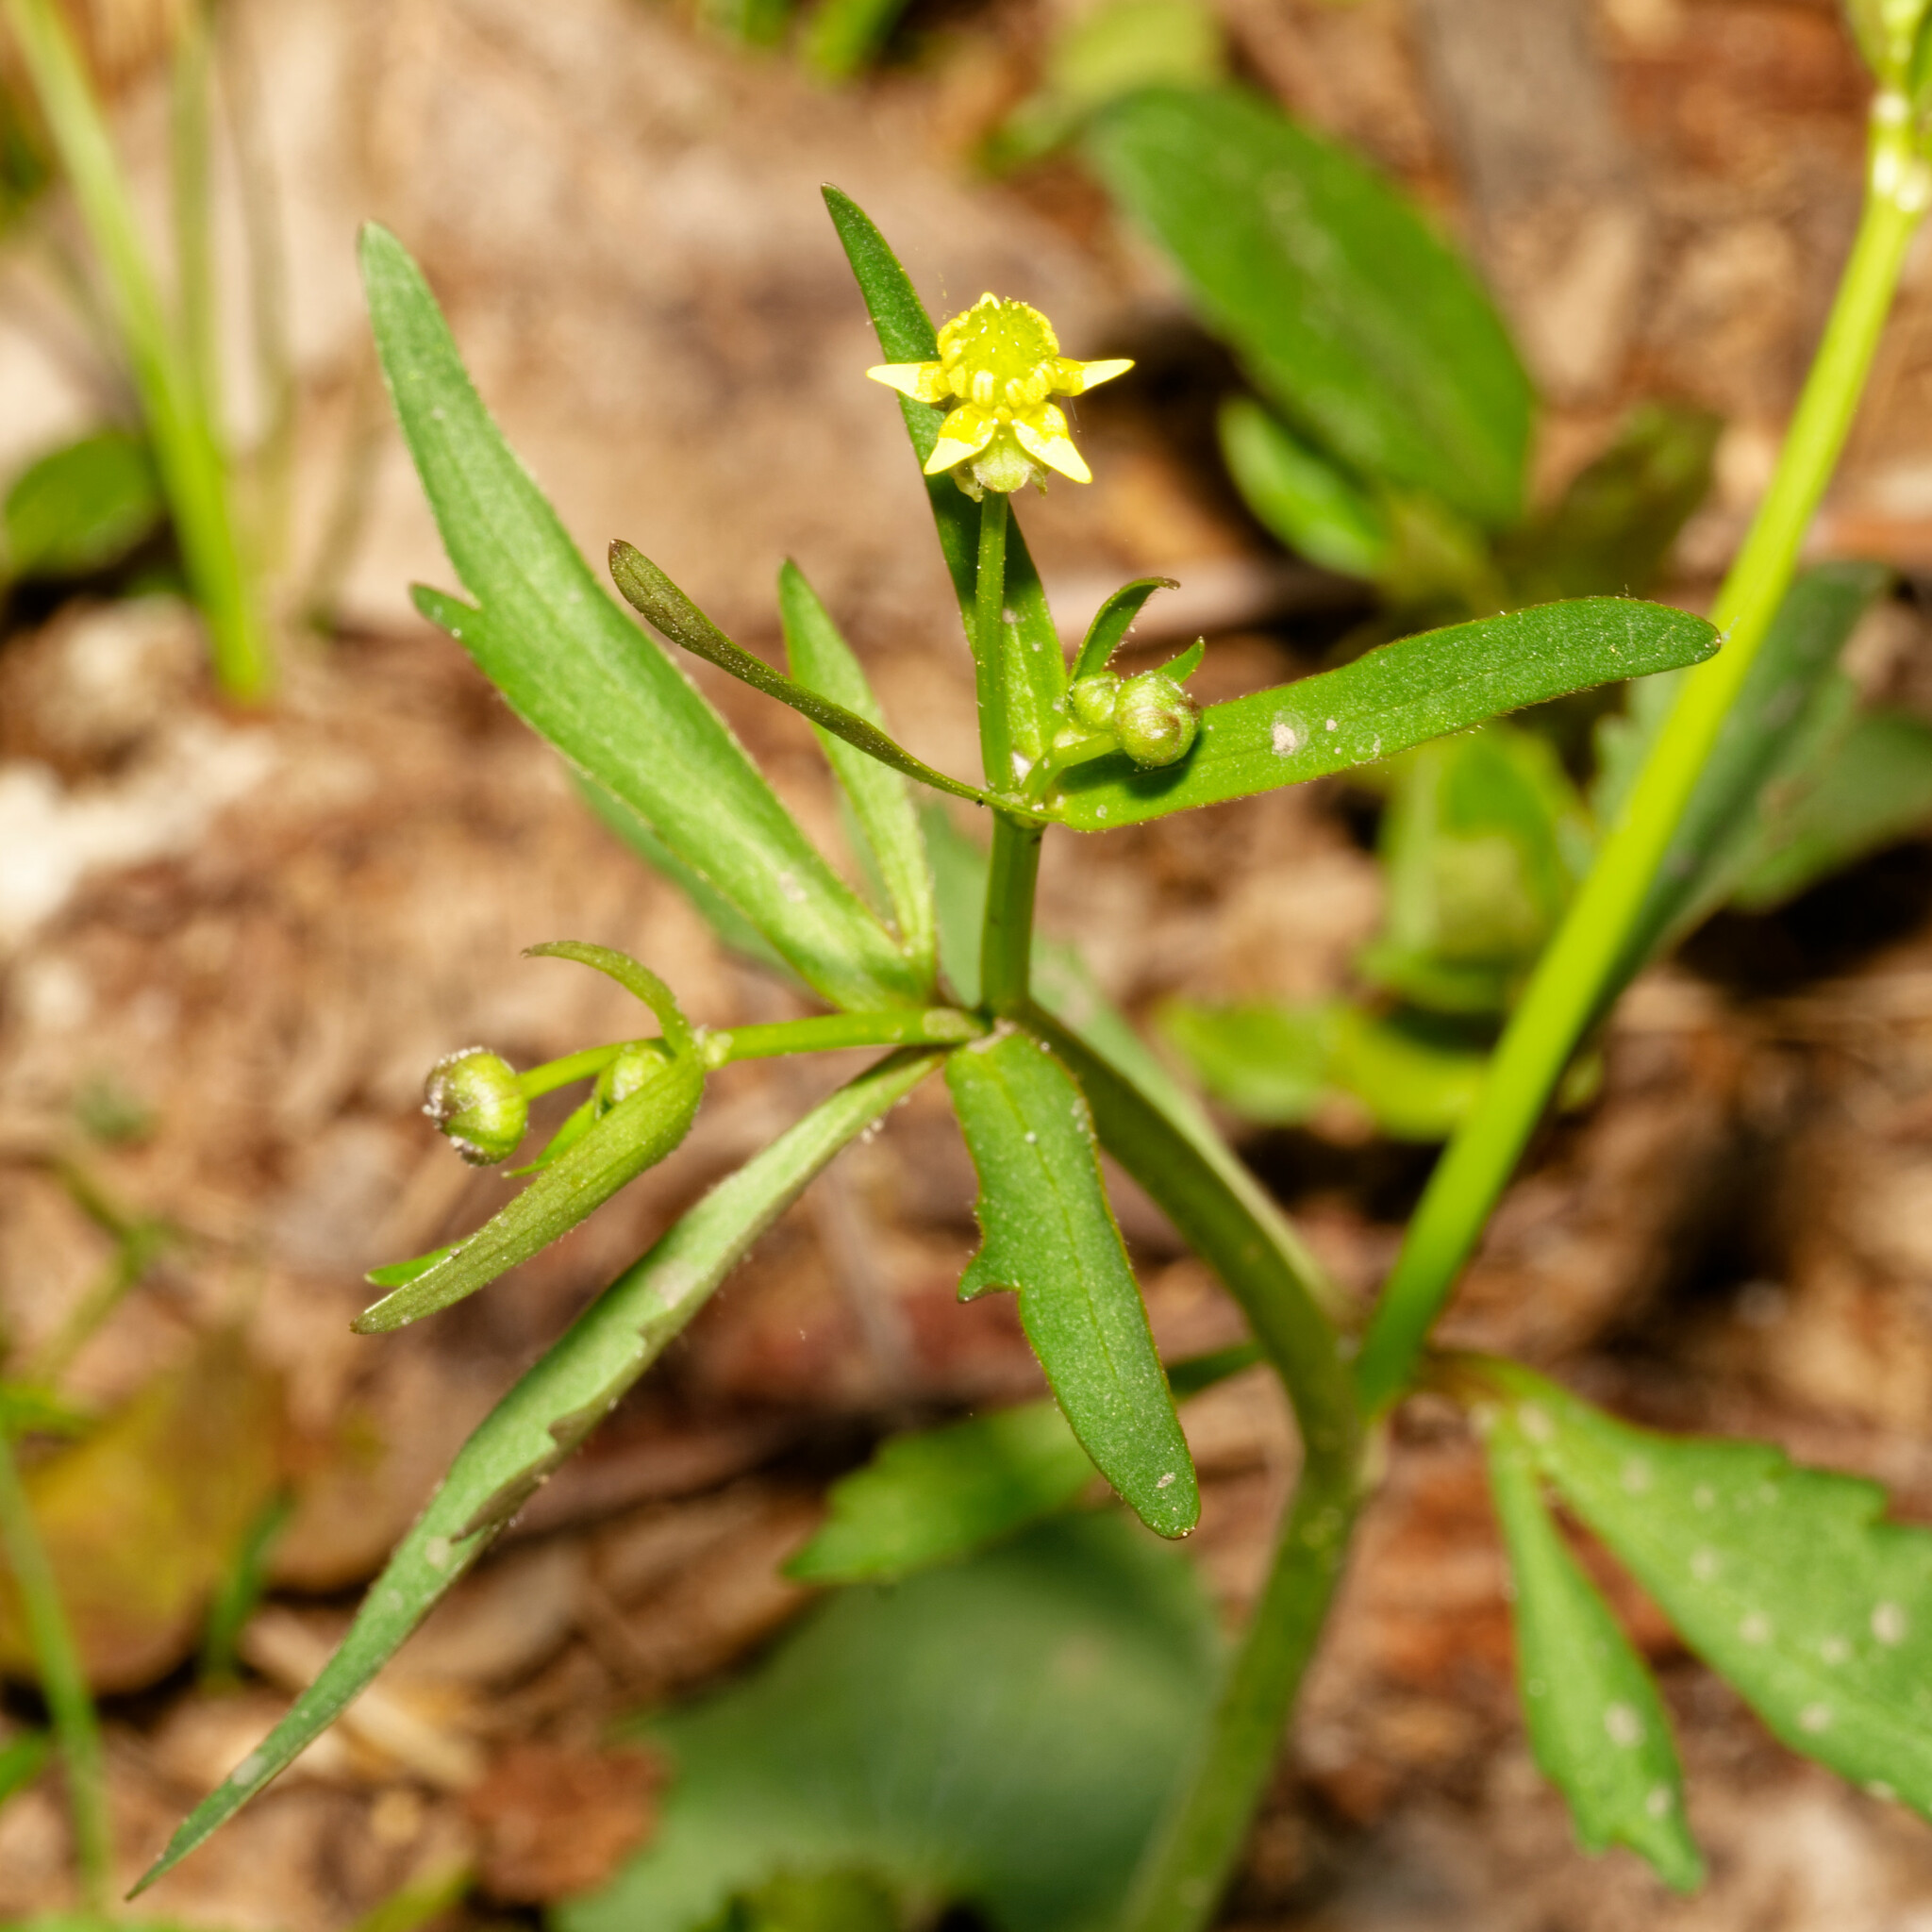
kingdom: Plantae
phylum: Tracheophyta
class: Magnoliopsida
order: Ranunculales
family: Ranunculaceae
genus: Ranunculus
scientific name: Ranunculus abortivus
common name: Early wood buttercup
